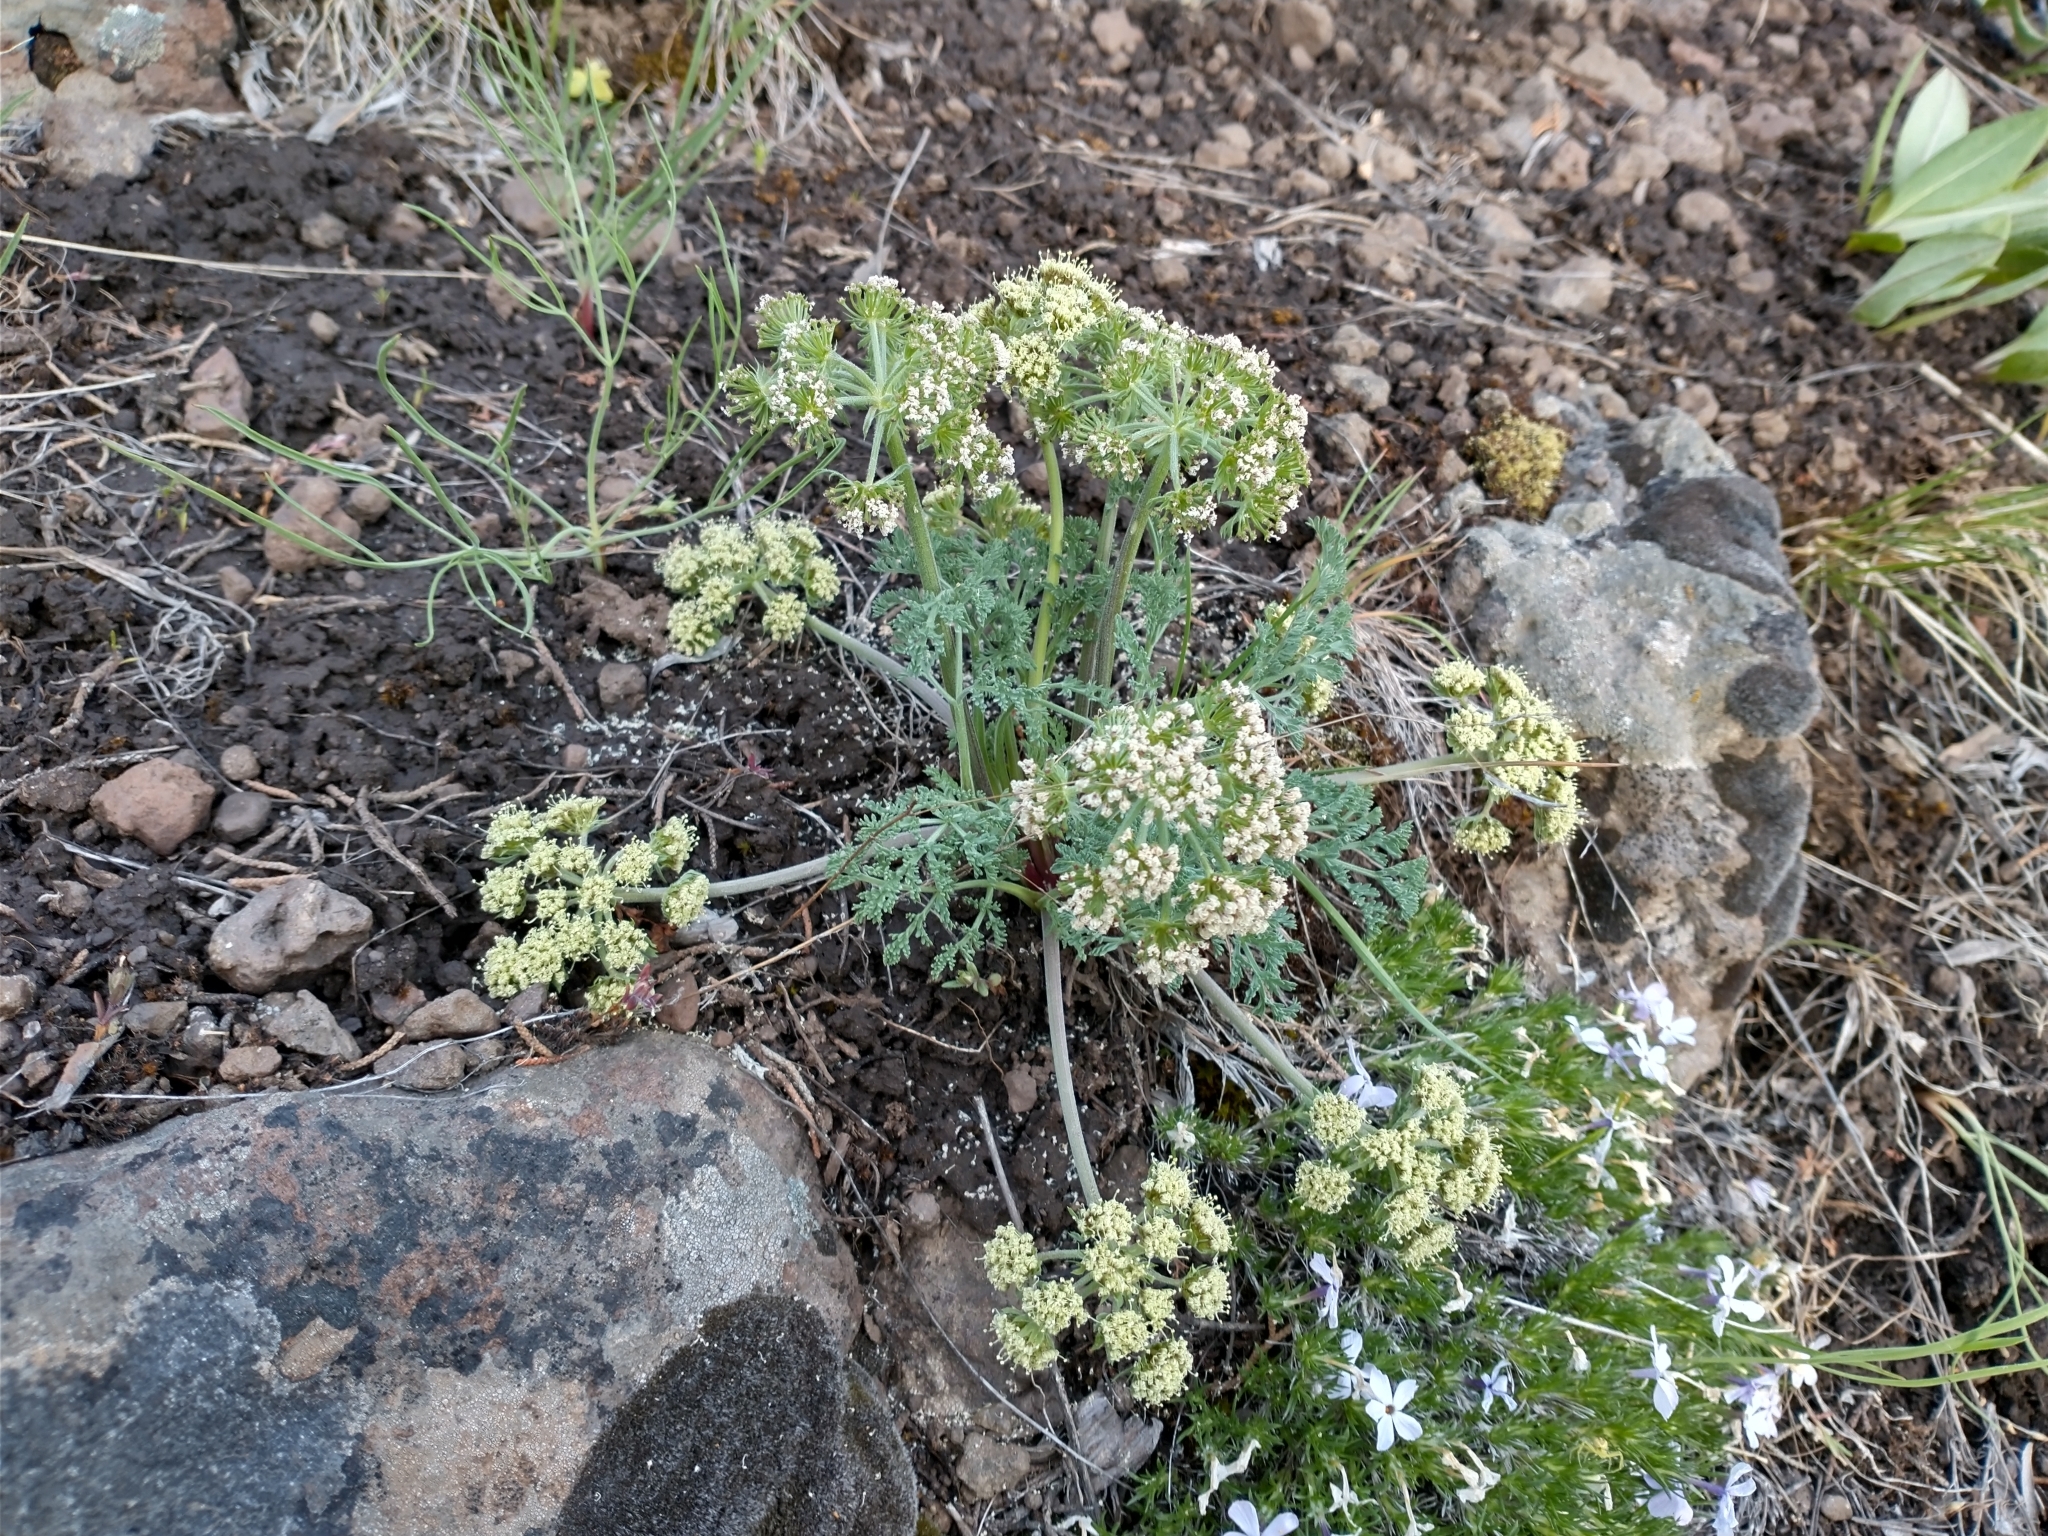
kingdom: Plantae
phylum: Tracheophyta
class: Magnoliopsida
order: Apiales
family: Apiaceae
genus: Lomatium
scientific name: Lomatium macrocarpum
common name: Big-seed biscuitroot
